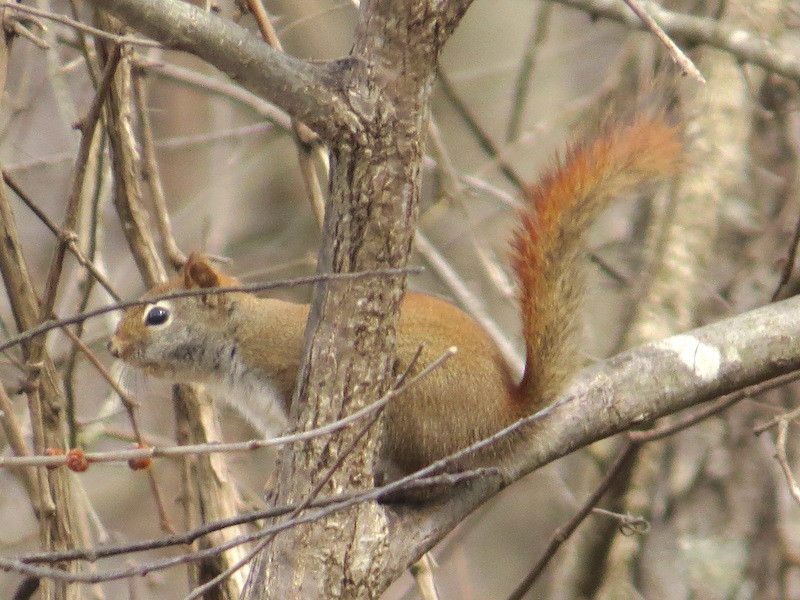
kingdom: Animalia
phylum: Chordata
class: Mammalia
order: Rodentia
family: Sciuridae
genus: Tamiasciurus
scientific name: Tamiasciurus hudsonicus
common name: Red squirrel
